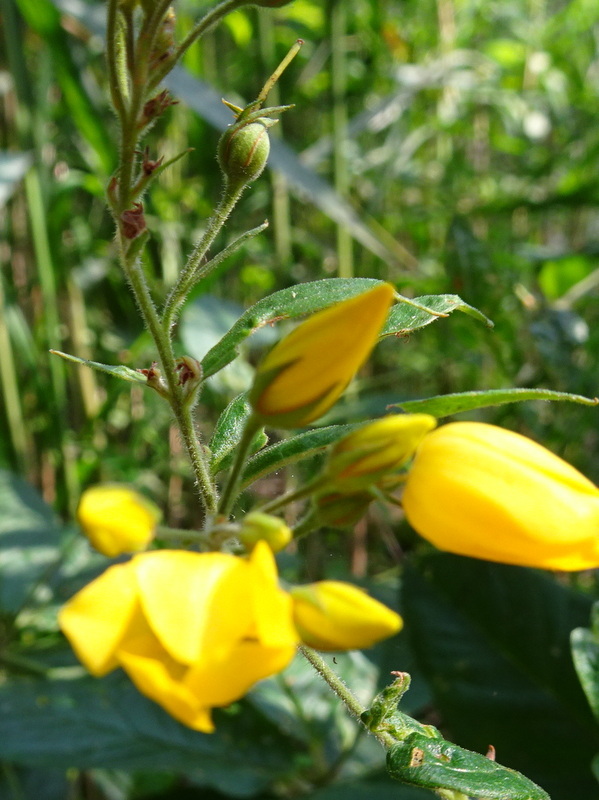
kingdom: Plantae
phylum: Tracheophyta
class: Magnoliopsida
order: Ericales
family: Primulaceae
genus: Lysimachia
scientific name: Lysimachia vulgaris
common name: Yellow loosestrife
